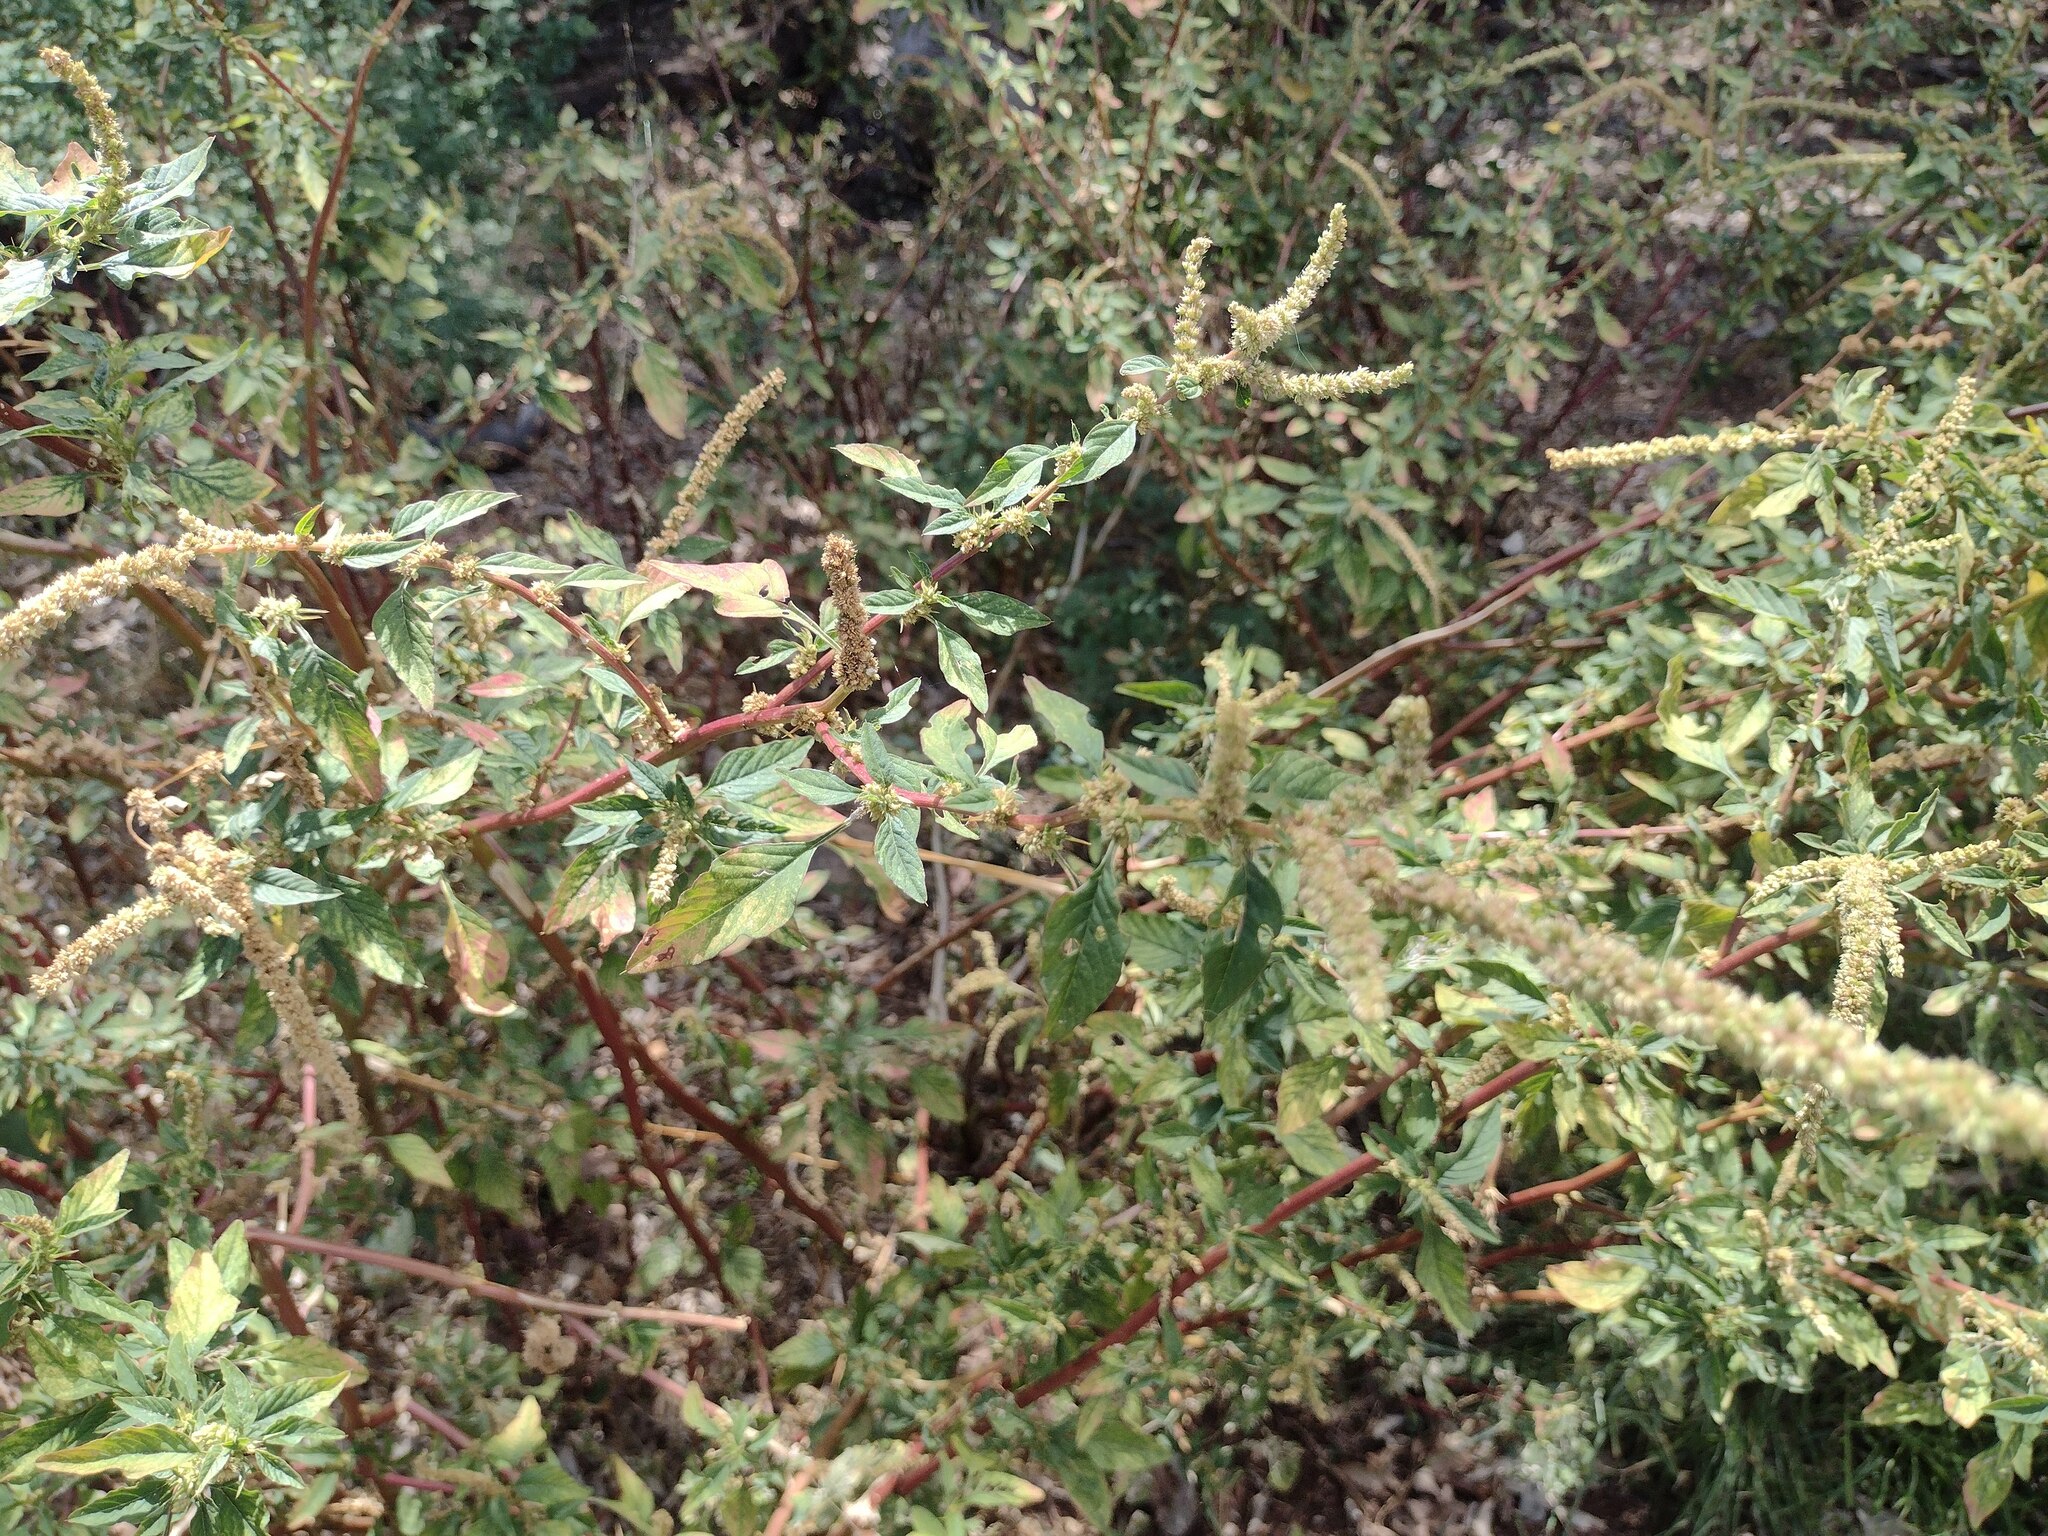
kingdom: Plantae
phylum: Tracheophyta
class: Magnoliopsida
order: Caryophyllales
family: Amaranthaceae
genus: Amaranthus
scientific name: Amaranthus spinosus
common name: Spiny amaranth
